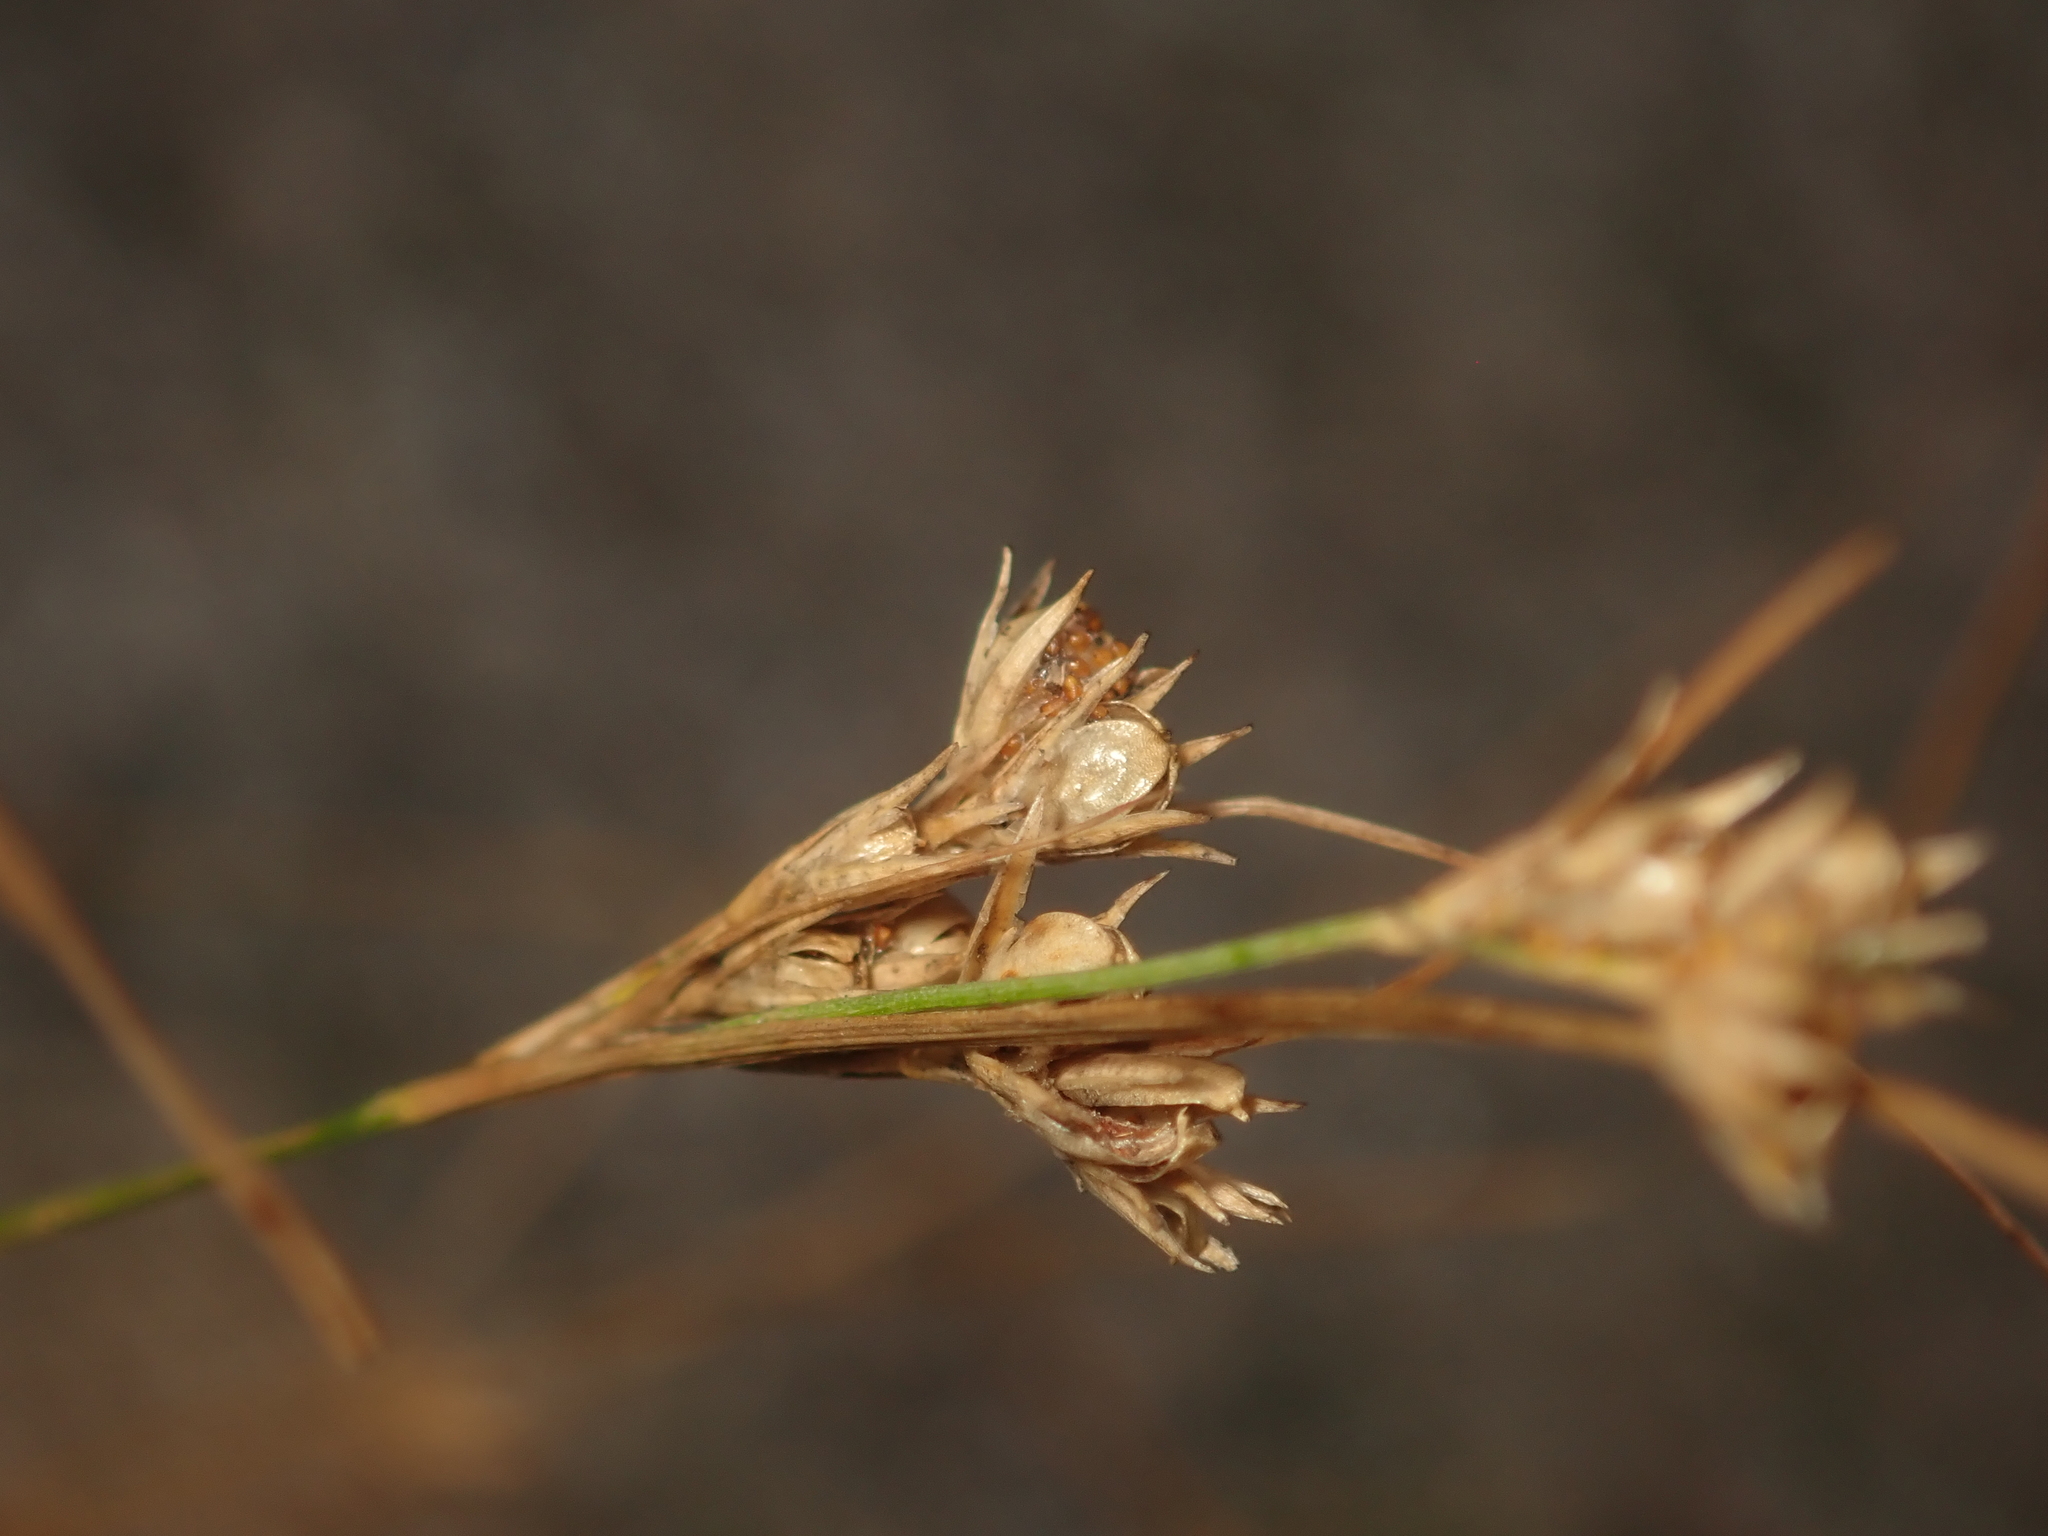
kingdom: Plantae
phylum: Tracheophyta
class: Liliopsida
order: Poales
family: Juncaceae
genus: Juncus
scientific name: Juncus tenuis
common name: Slender rush
